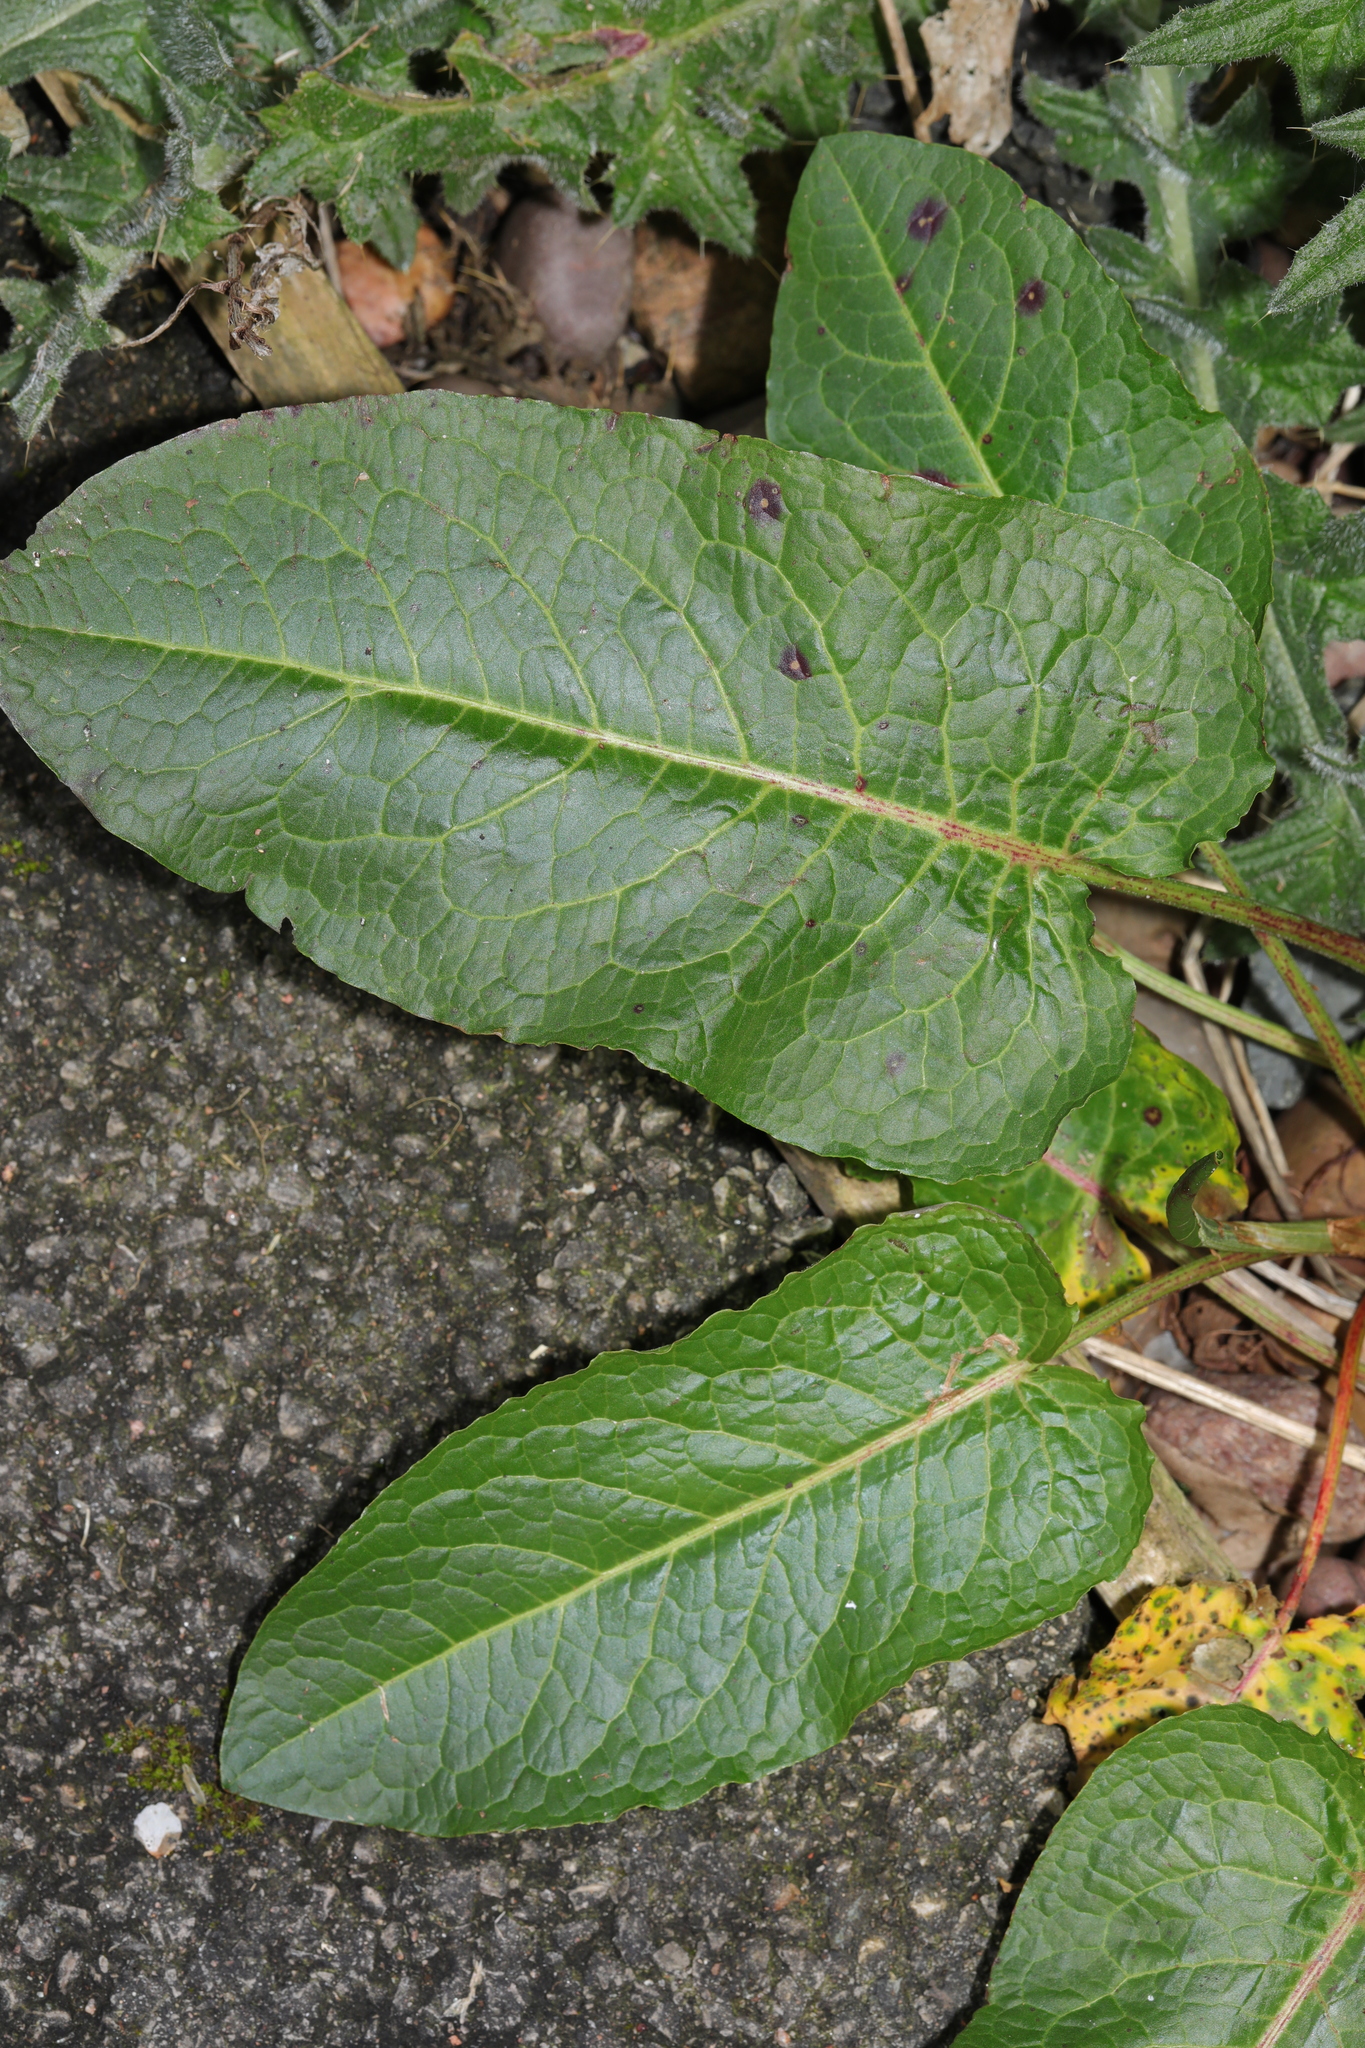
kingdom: Plantae
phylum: Tracheophyta
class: Magnoliopsida
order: Caryophyllales
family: Polygonaceae
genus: Rumex
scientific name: Rumex obtusifolius
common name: Bitter dock
